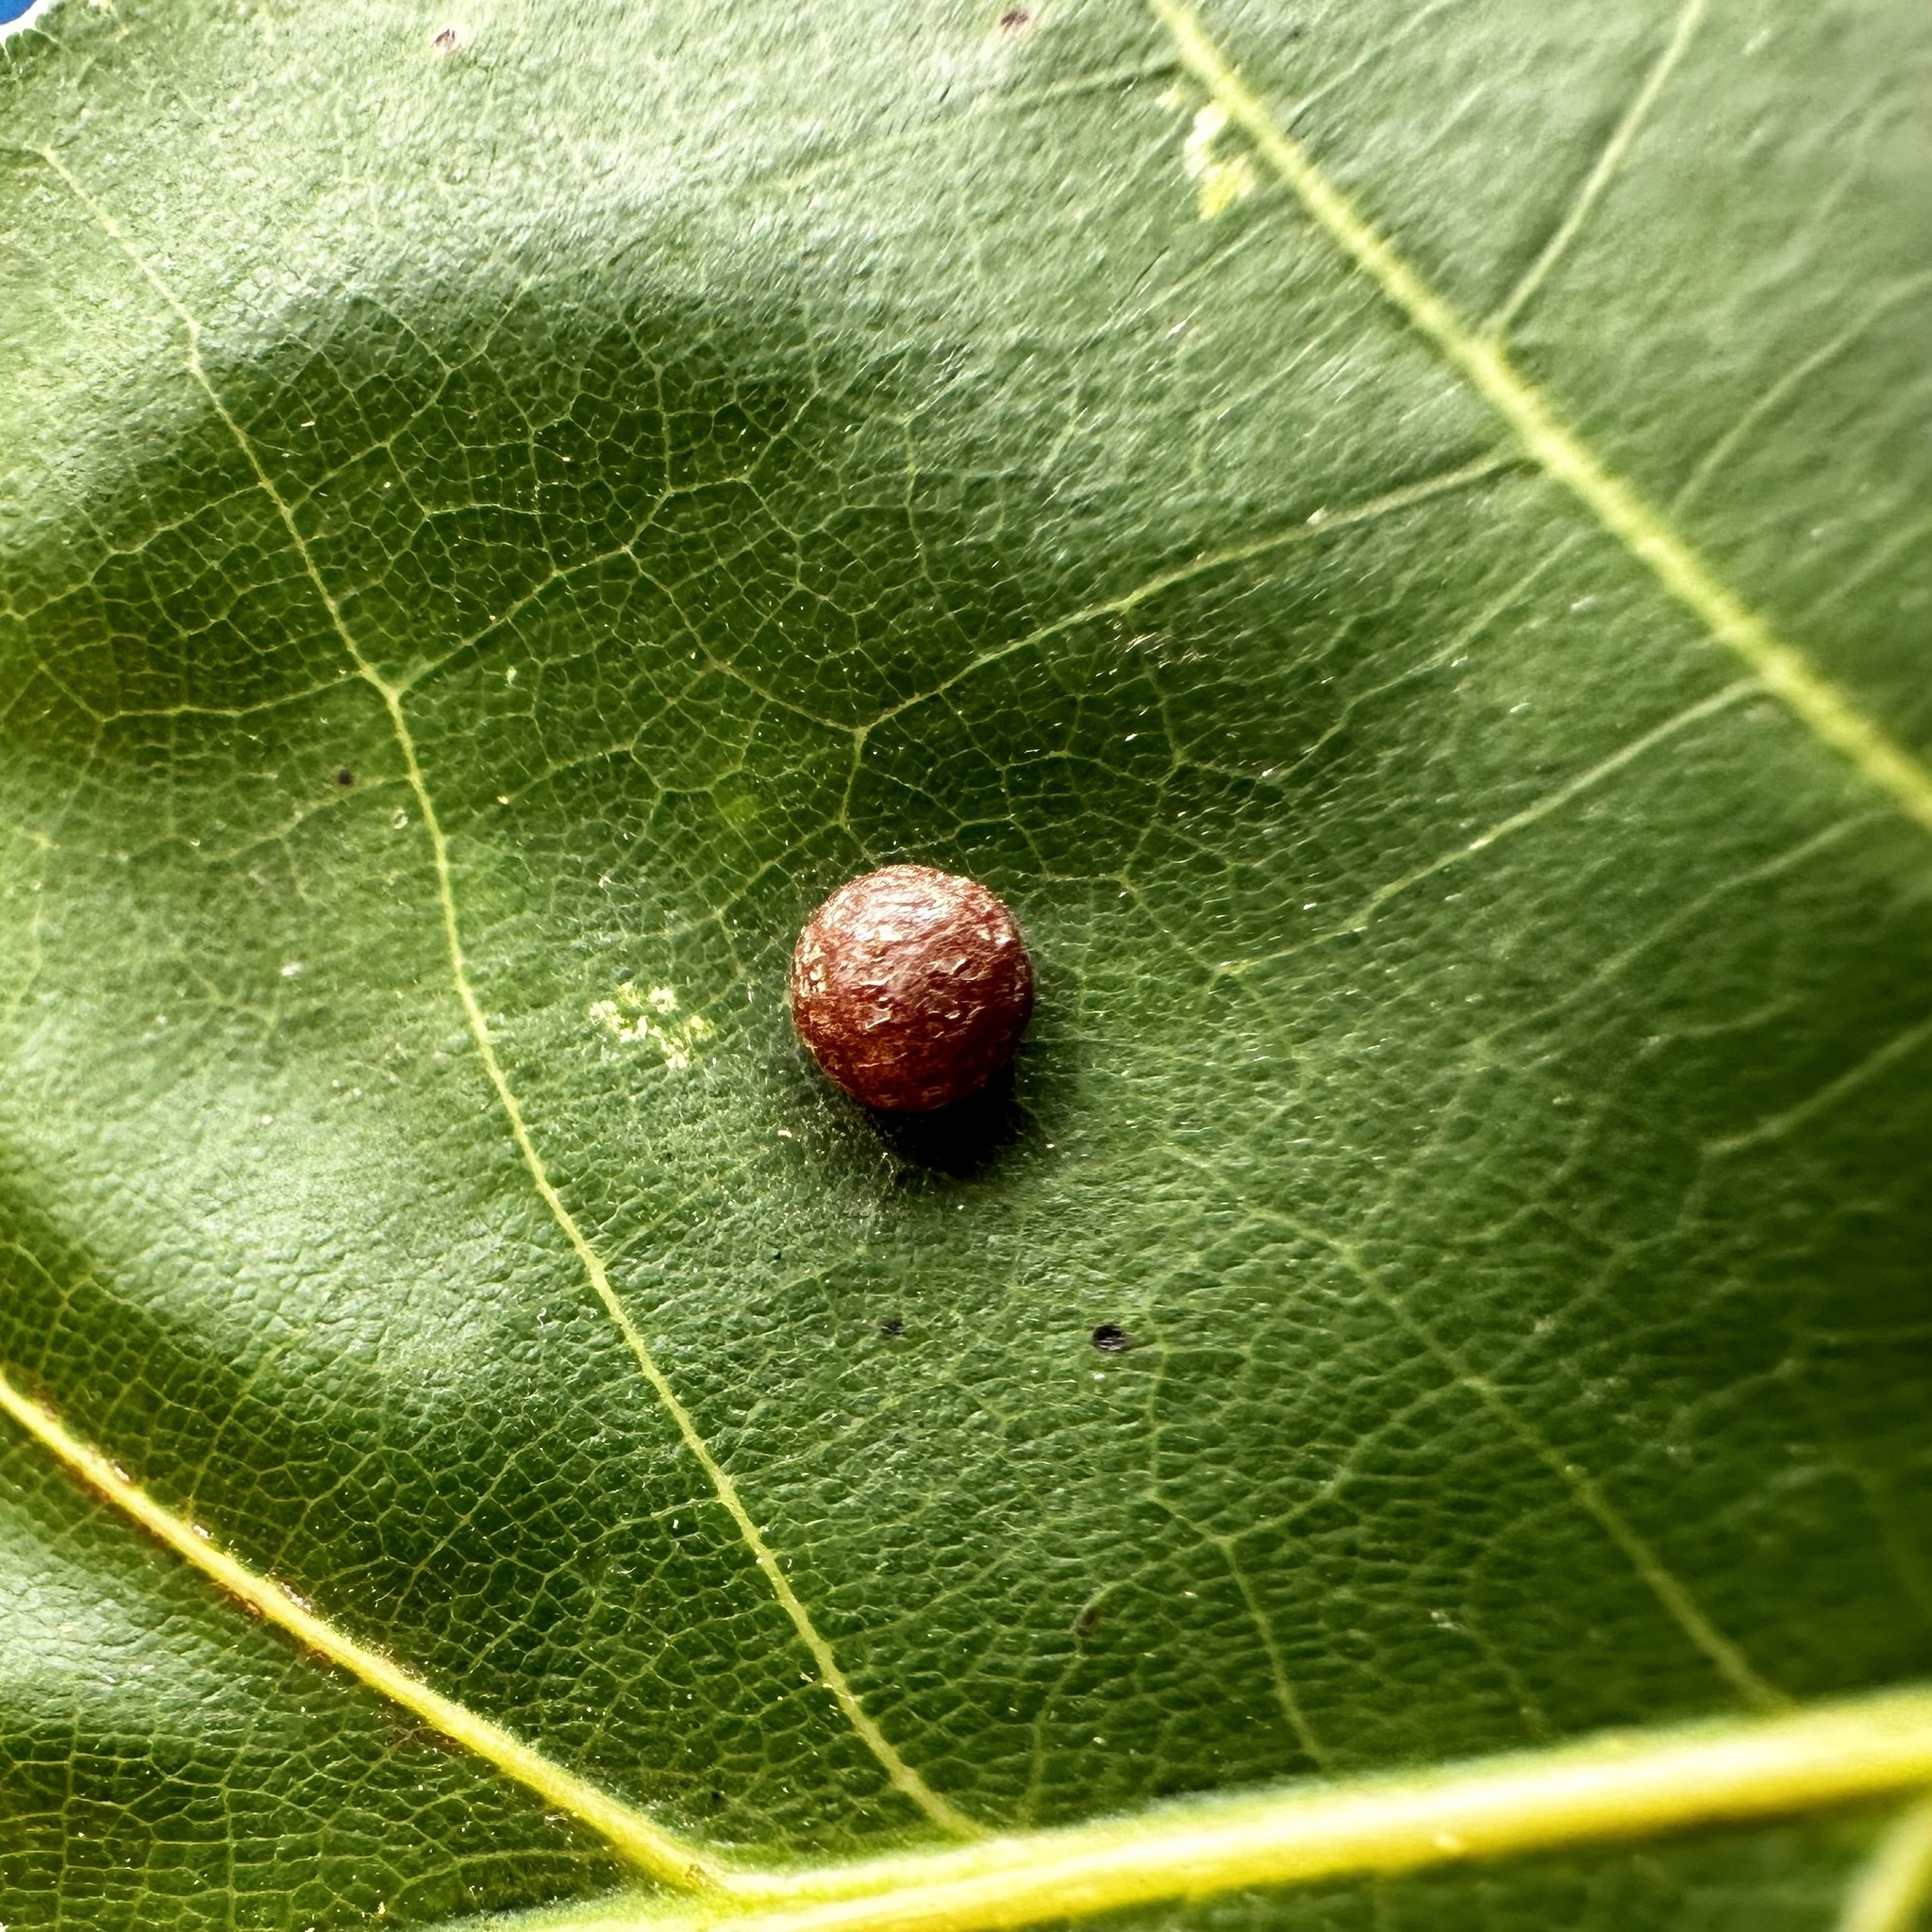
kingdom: Animalia
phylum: Arthropoda
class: Insecta
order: Diptera
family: Cecidomyiidae
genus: Polystepha
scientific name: Polystepha pilulae
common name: Oak leaf gall midge
